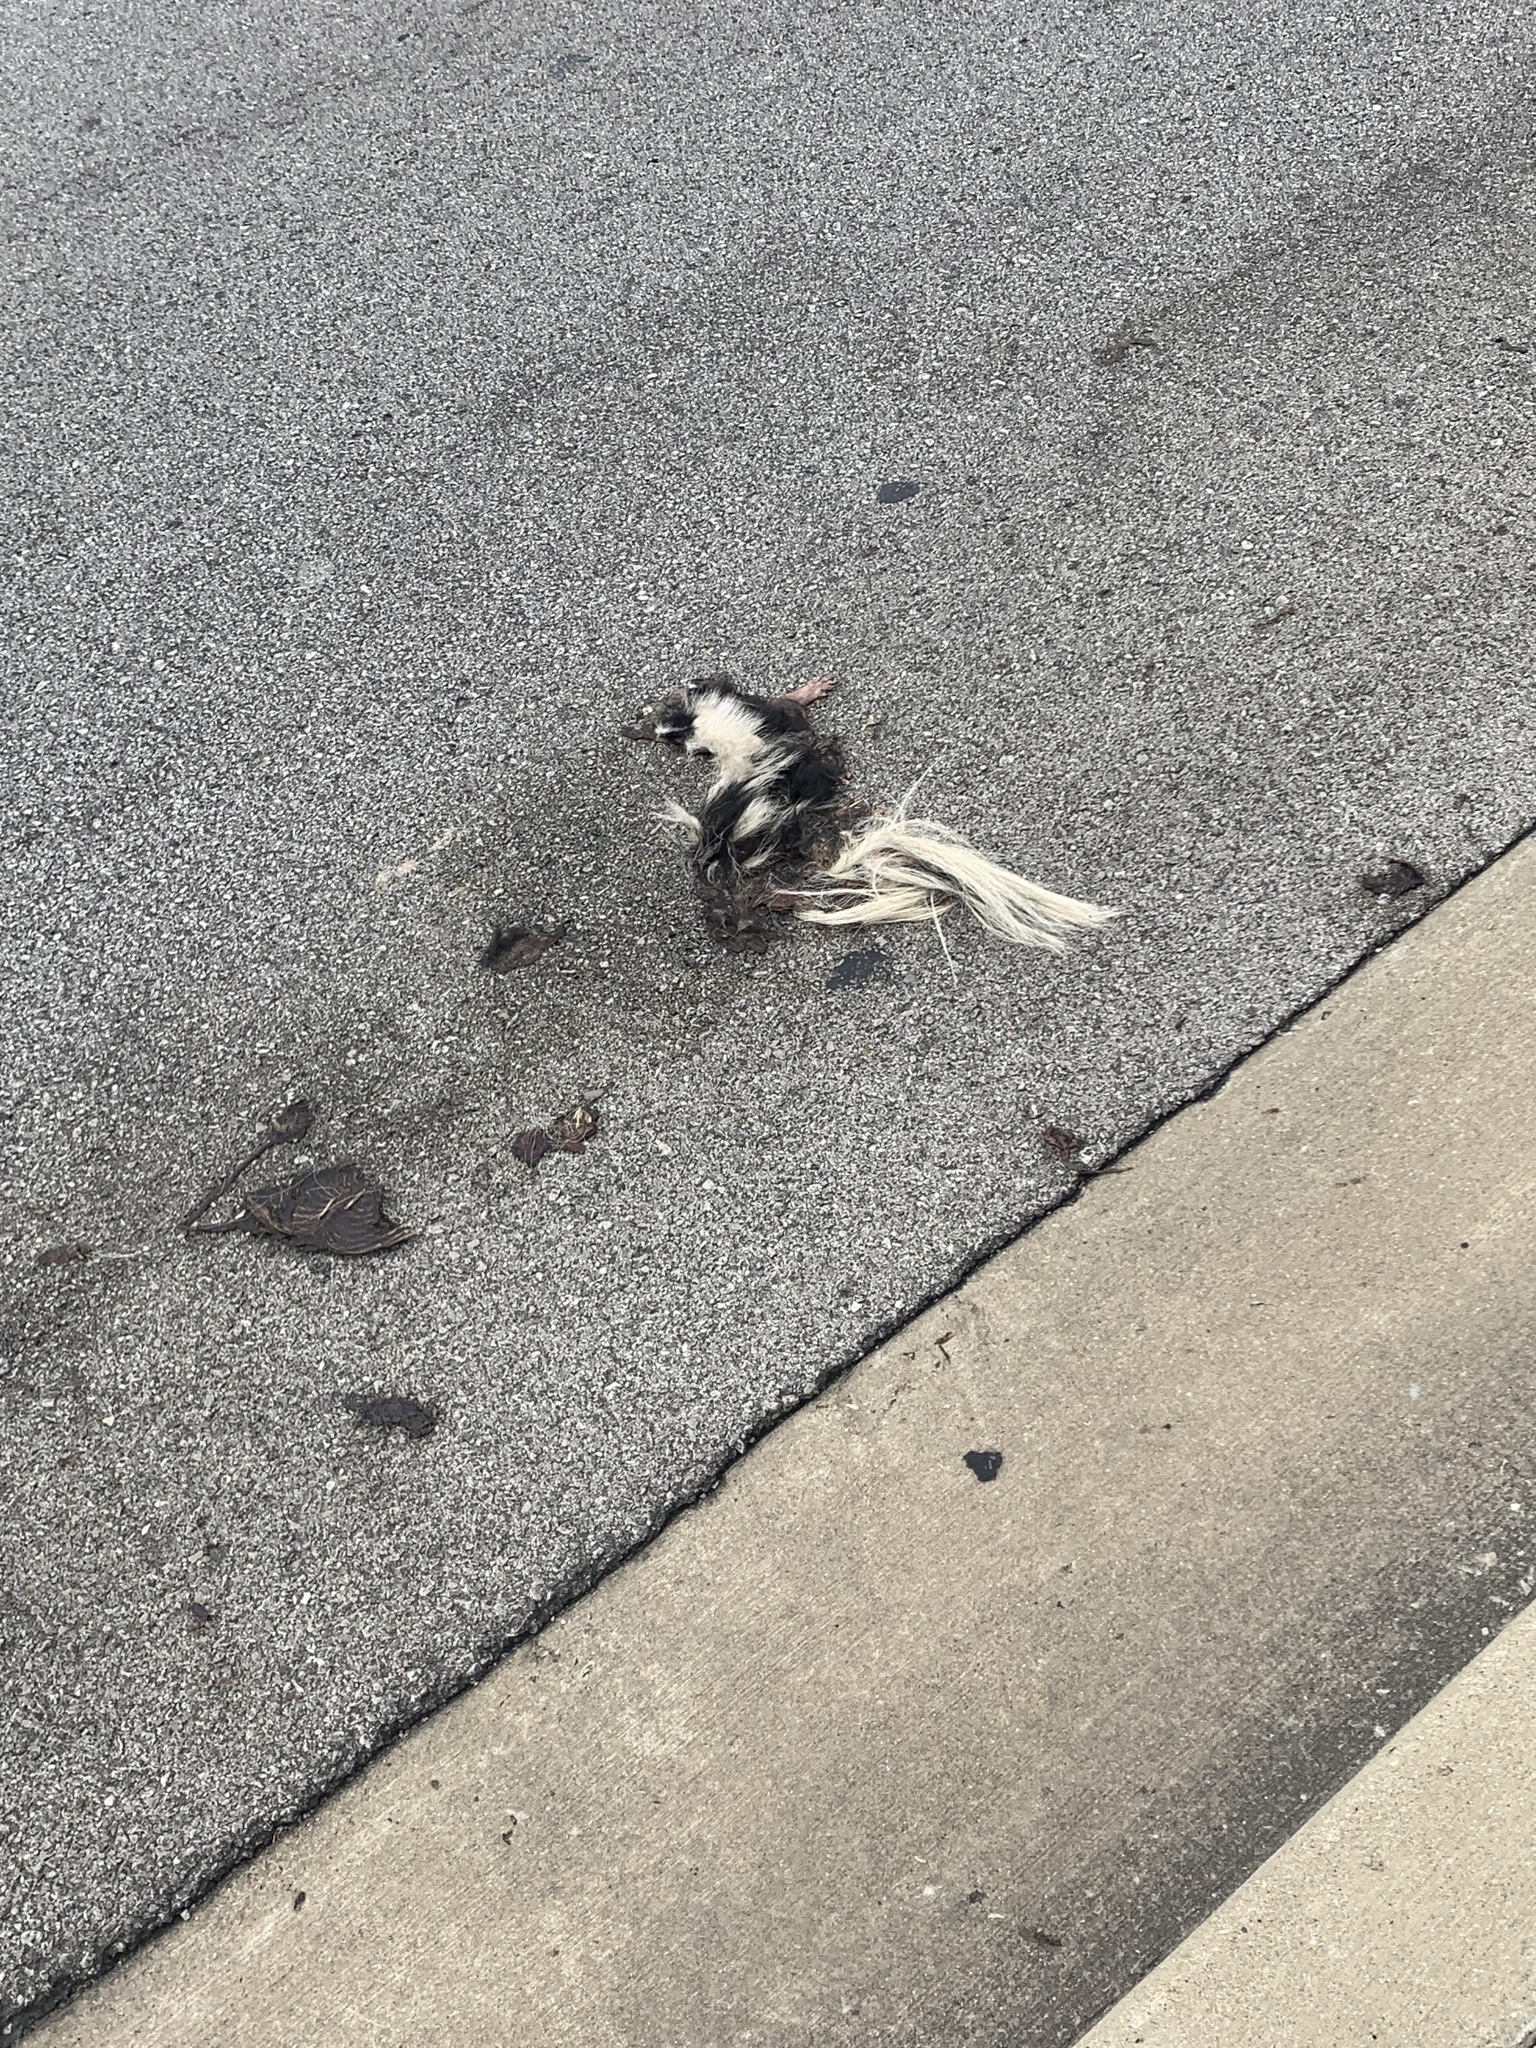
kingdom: Animalia
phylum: Chordata
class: Mammalia
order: Carnivora
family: Mephitidae
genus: Mephitis
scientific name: Mephitis mephitis
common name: Striped skunk
